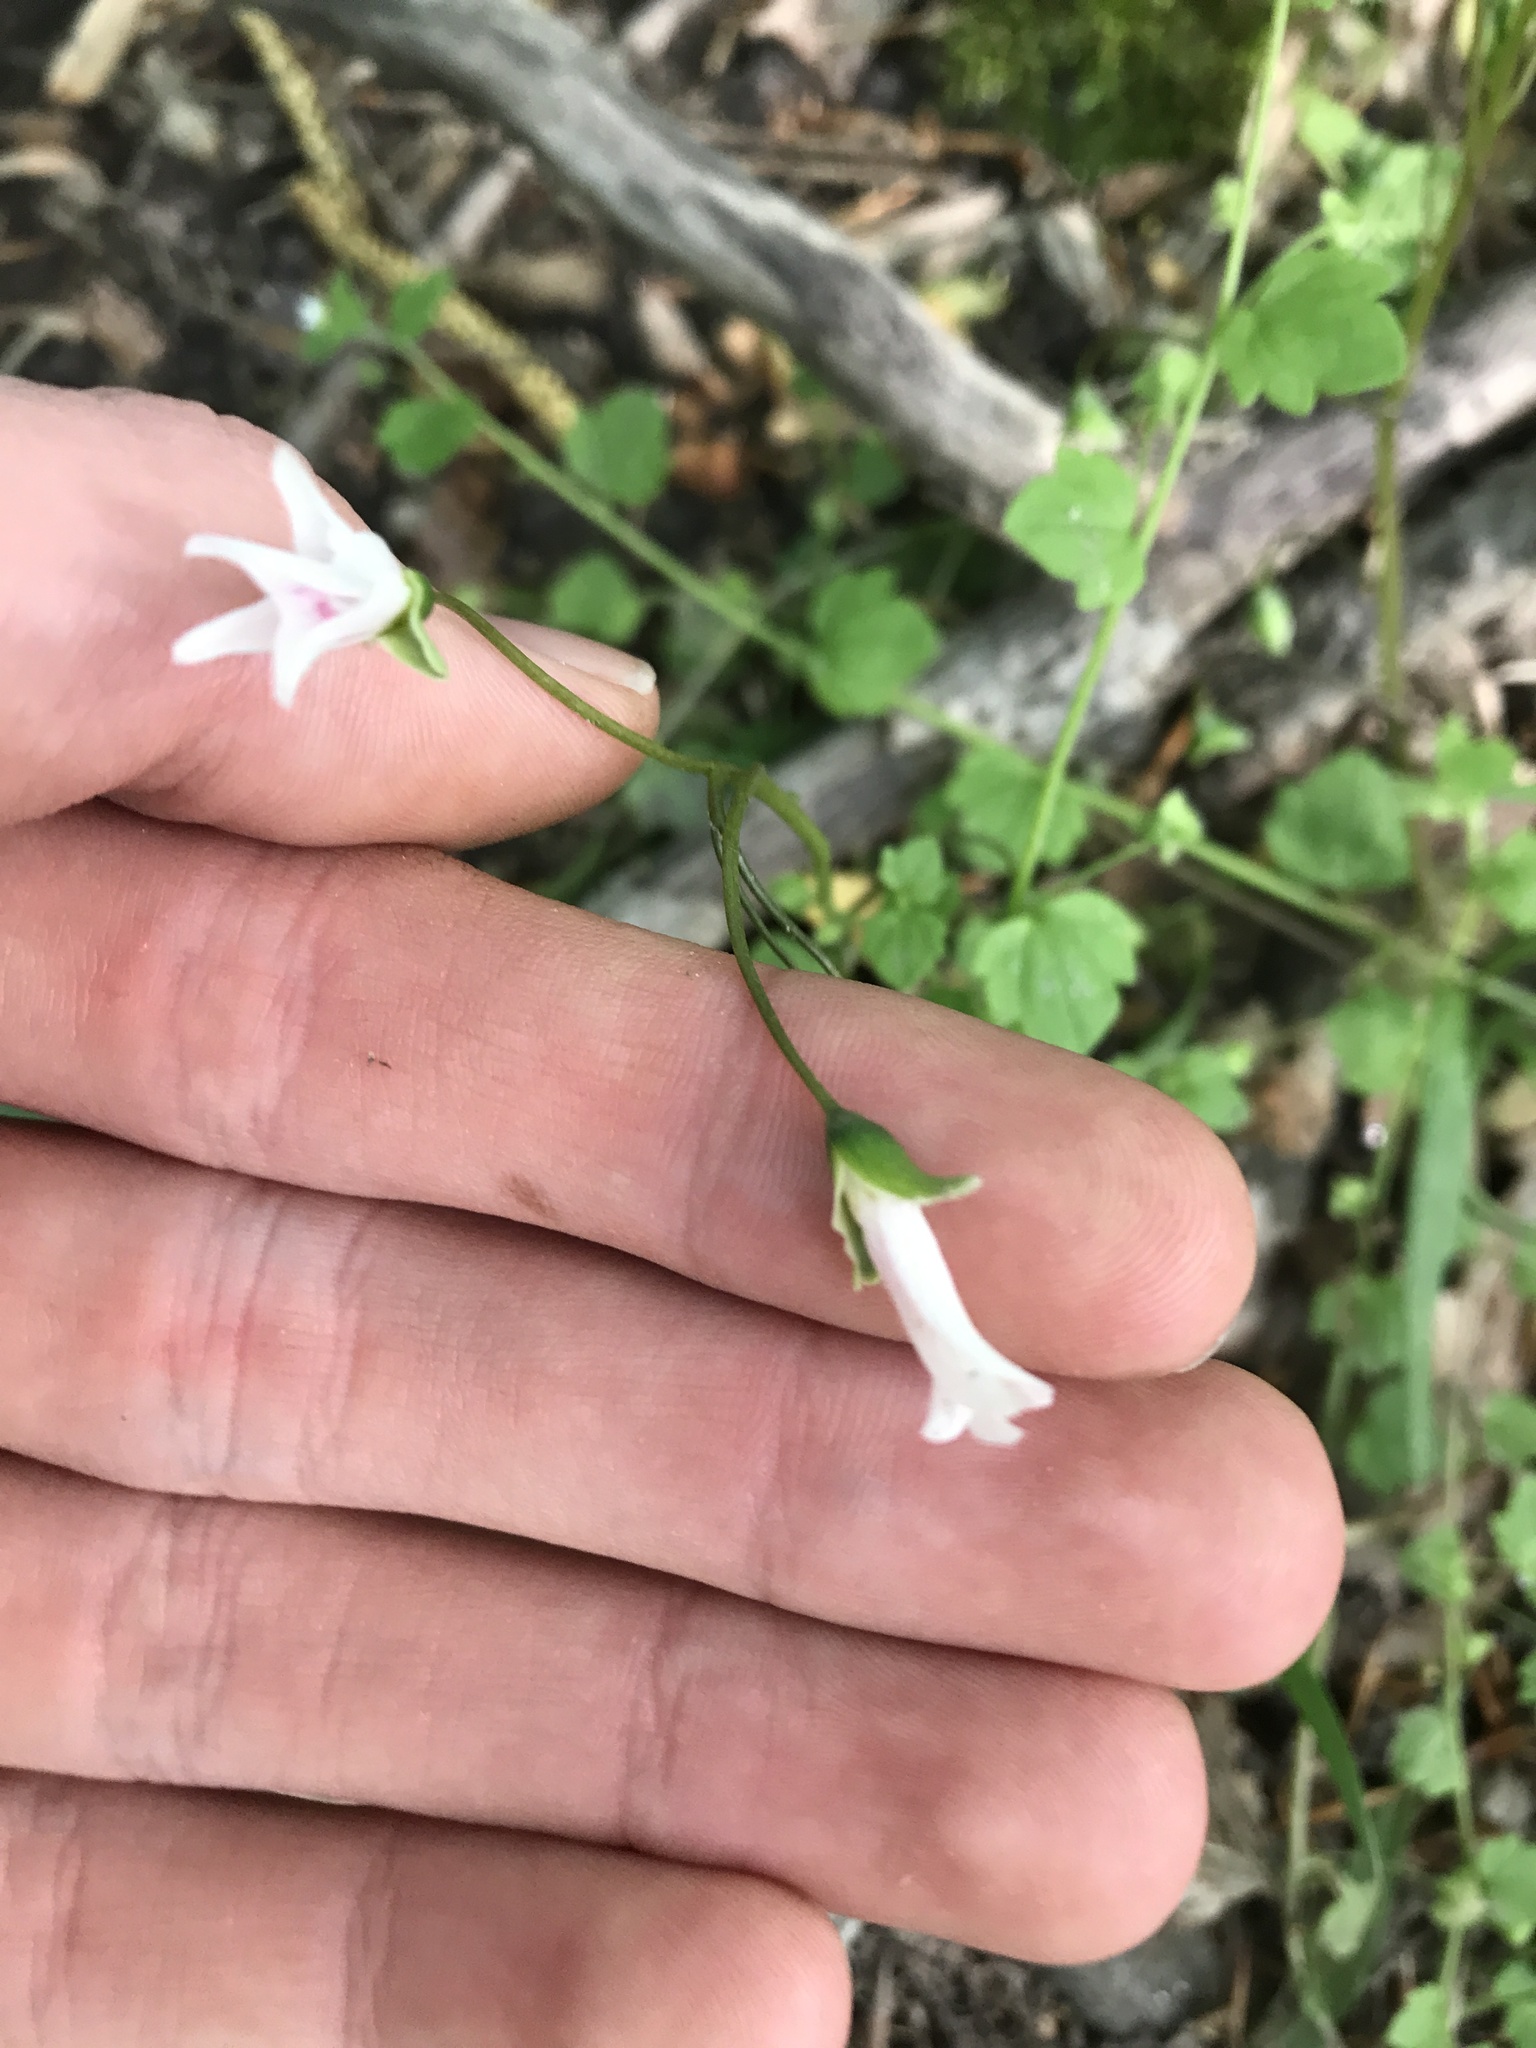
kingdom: Plantae
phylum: Tracheophyta
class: Magnoliopsida
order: Caryophyllales
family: Montiaceae
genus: Claytonia
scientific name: Claytonia virginica
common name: Virginia springbeauty
